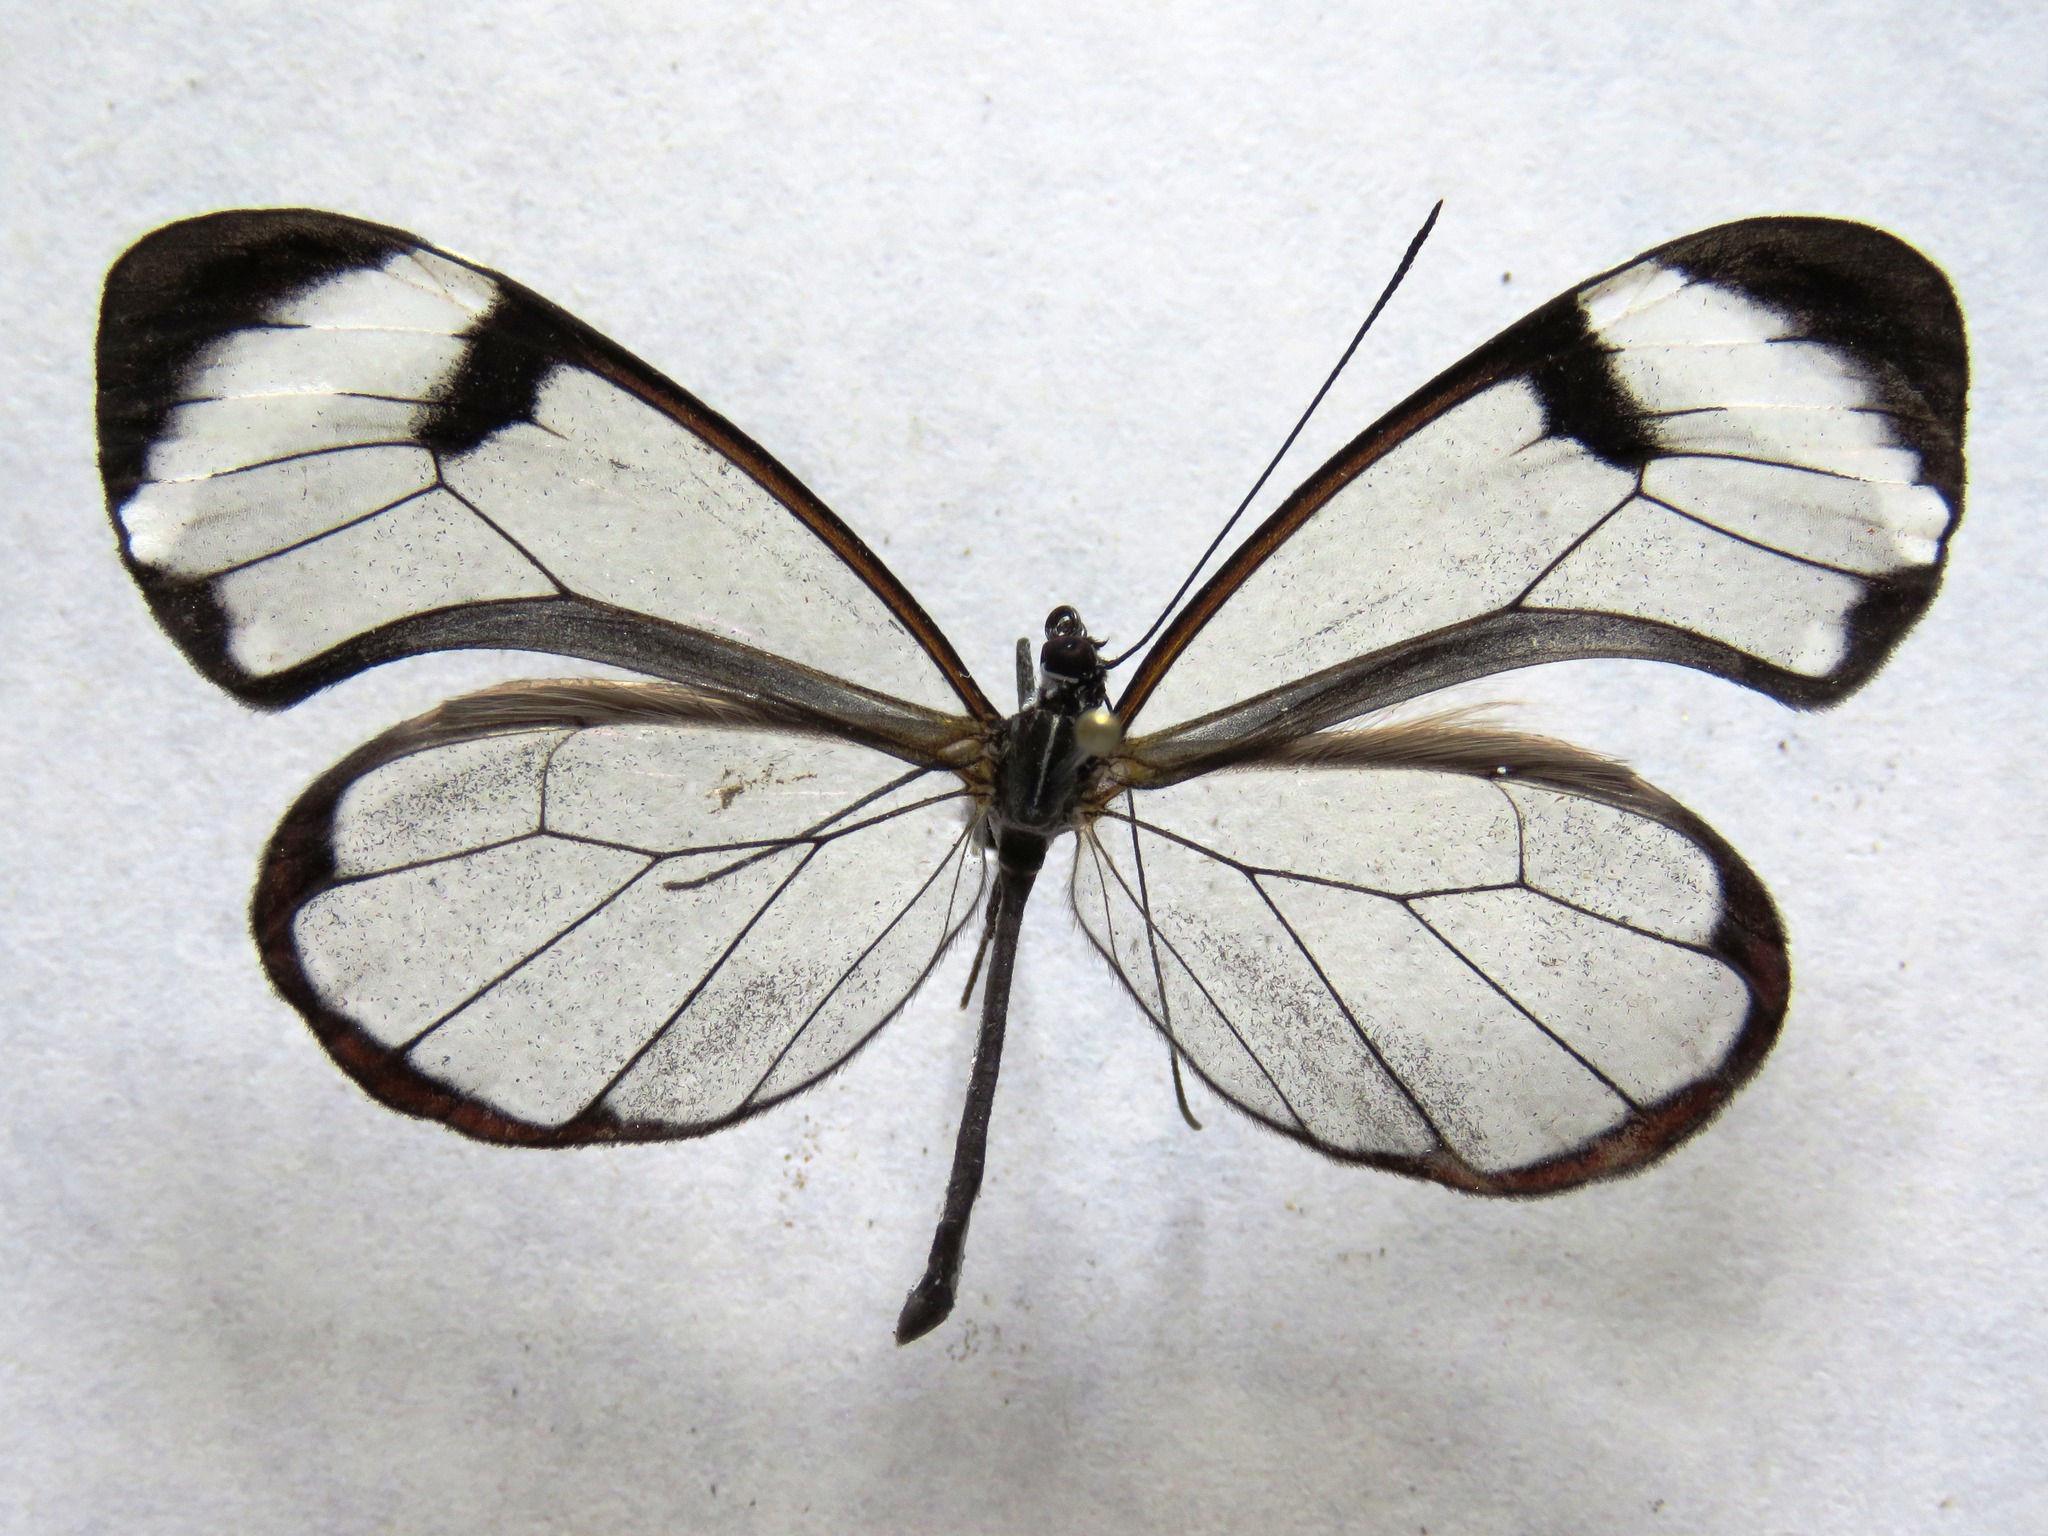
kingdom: Animalia
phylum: Arthropoda
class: Insecta
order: Lepidoptera
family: Nymphalidae
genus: Greta
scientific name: Greta morgane
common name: Thick-tipped greta
